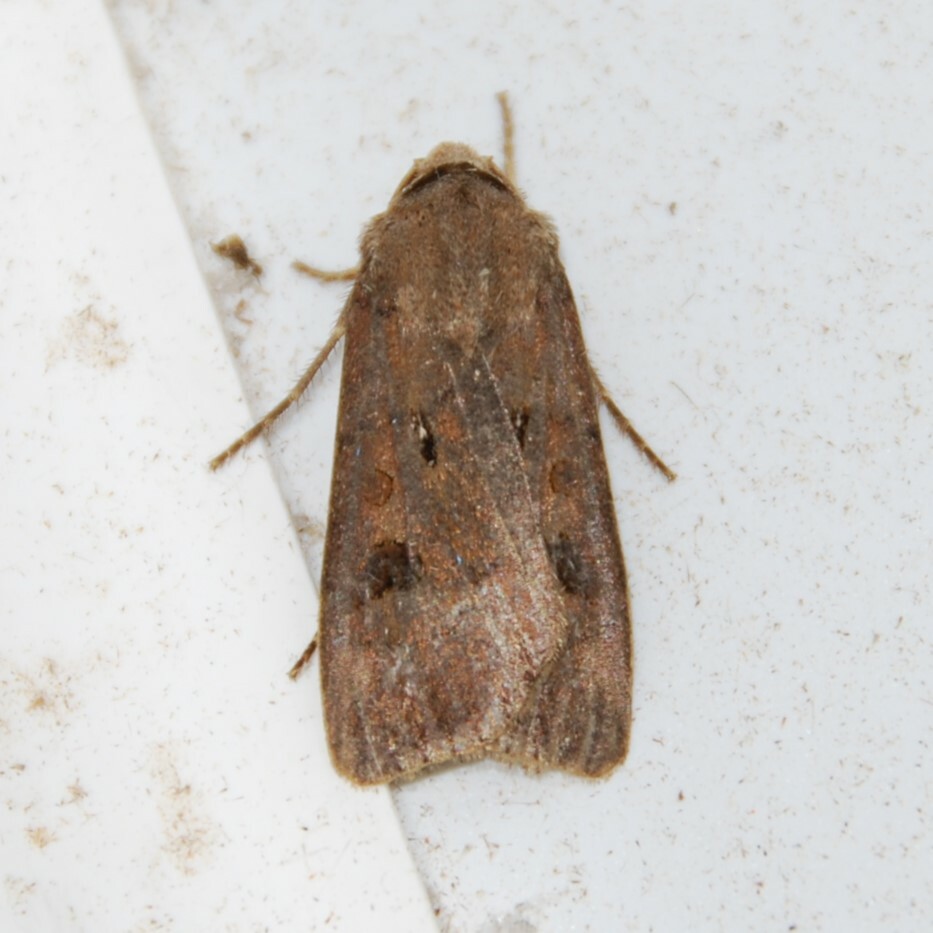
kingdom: Animalia
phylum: Arthropoda
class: Insecta
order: Lepidoptera
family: Noctuidae
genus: Agrotis
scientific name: Agrotis exclamationis
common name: Heart and dart
